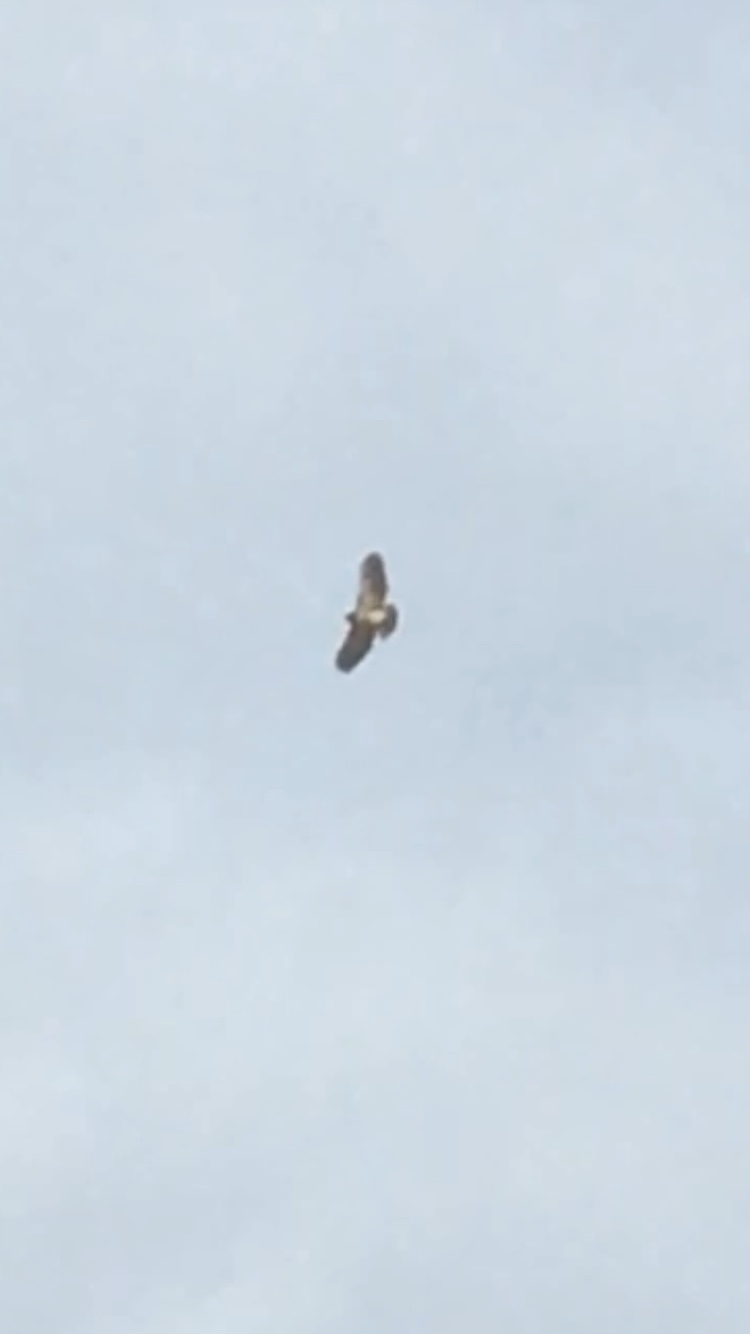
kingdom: Animalia
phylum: Chordata
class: Aves
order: Accipitriformes
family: Accipitridae
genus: Buteo
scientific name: Buteo jamaicensis
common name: Red-tailed hawk
